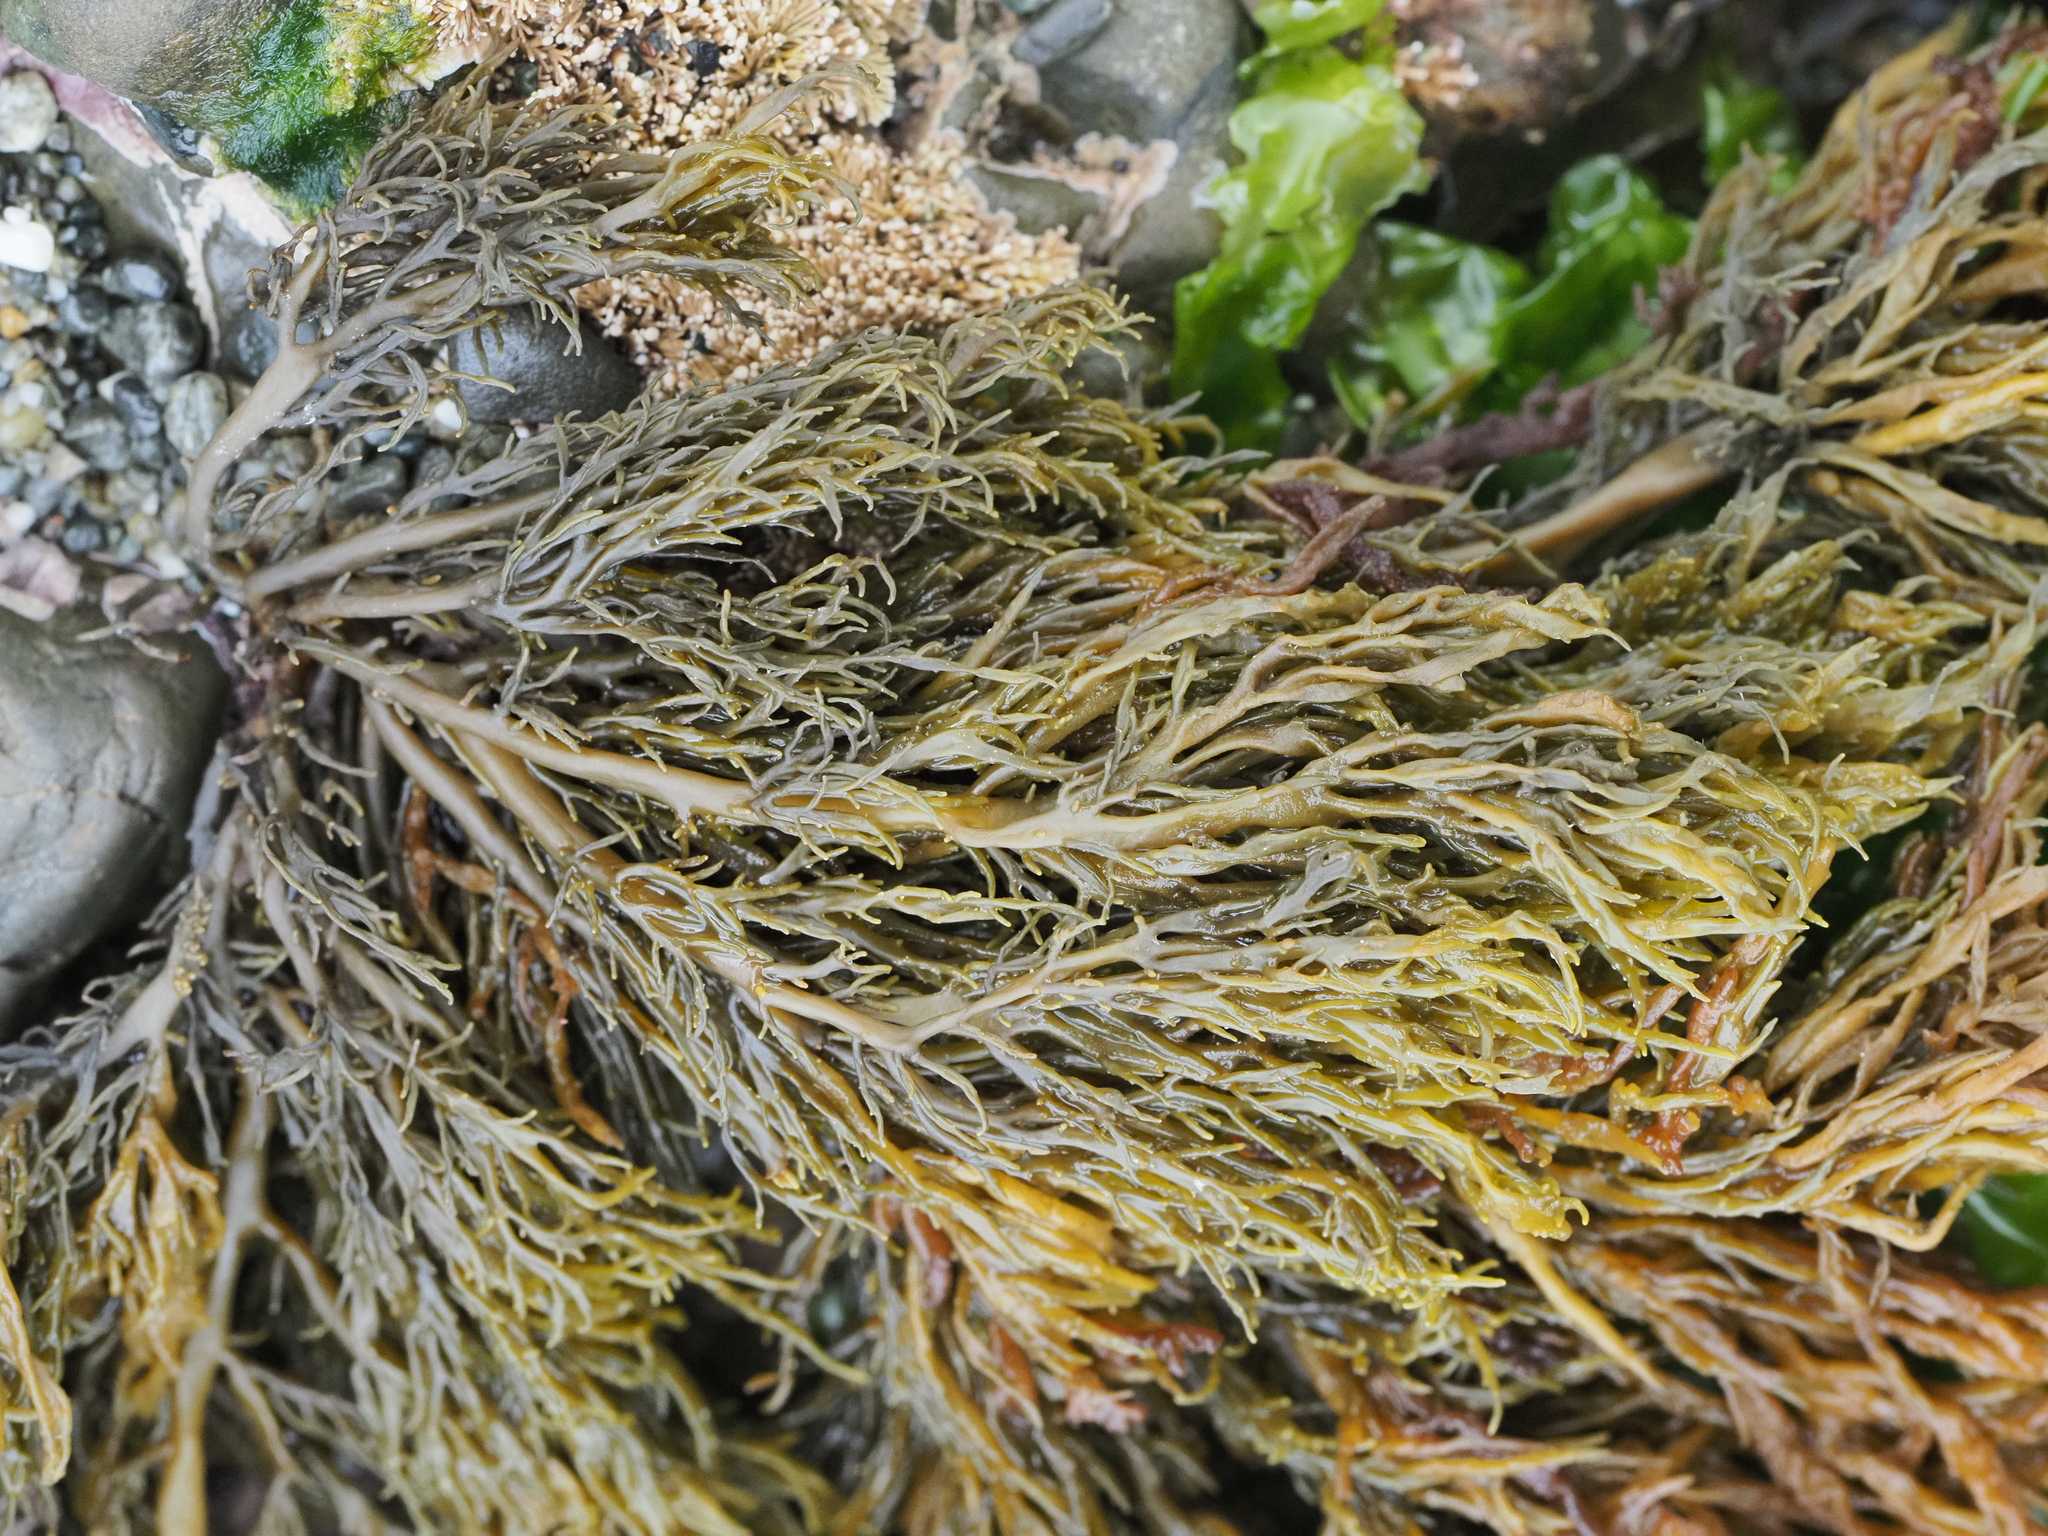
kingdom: Chromista
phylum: Ochrophyta
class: Phaeophyceae
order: Scytothamnales
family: Scytothamnaceae
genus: Scytothamnus
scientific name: Scytothamnus australis
